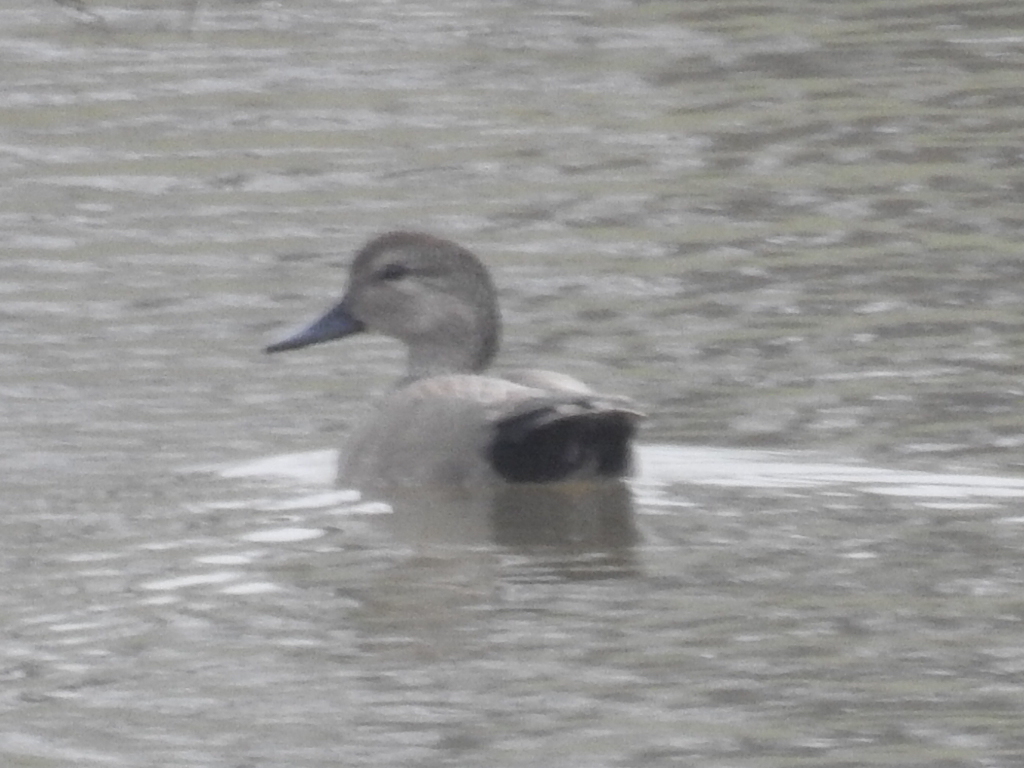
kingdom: Animalia
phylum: Chordata
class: Aves
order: Anseriformes
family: Anatidae
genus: Mareca
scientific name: Mareca strepera
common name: Gadwall
